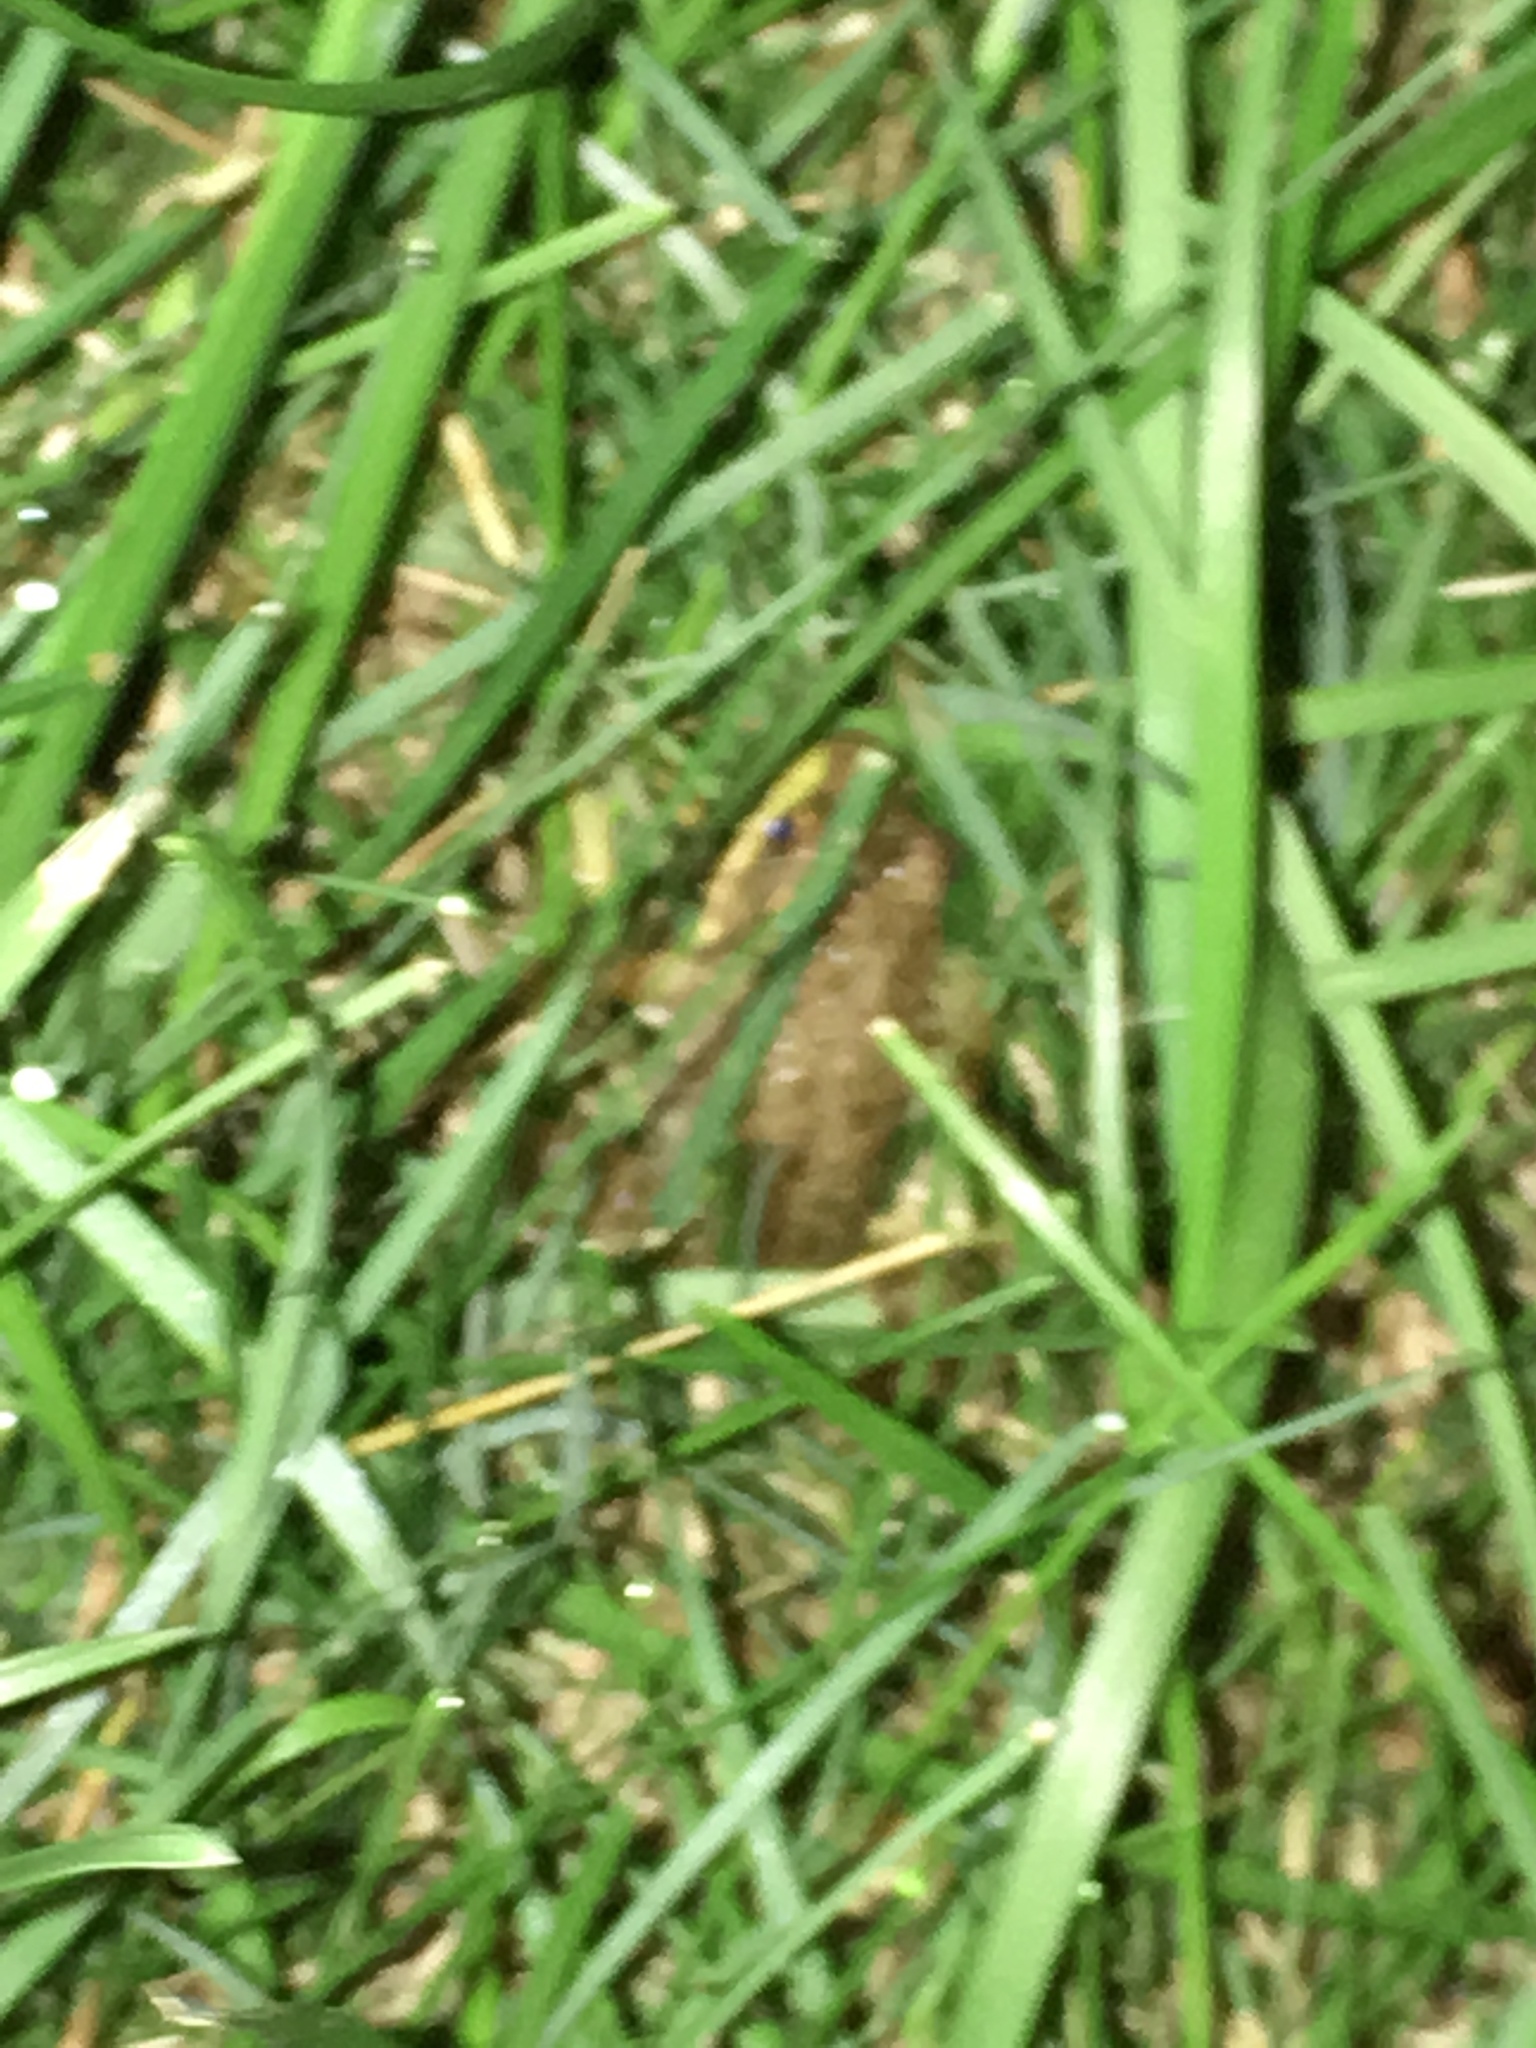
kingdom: Animalia
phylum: Chordata
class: Amphibia
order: Anura
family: Ranidae
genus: Lithobates
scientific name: Lithobates clamitans
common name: Green frog
